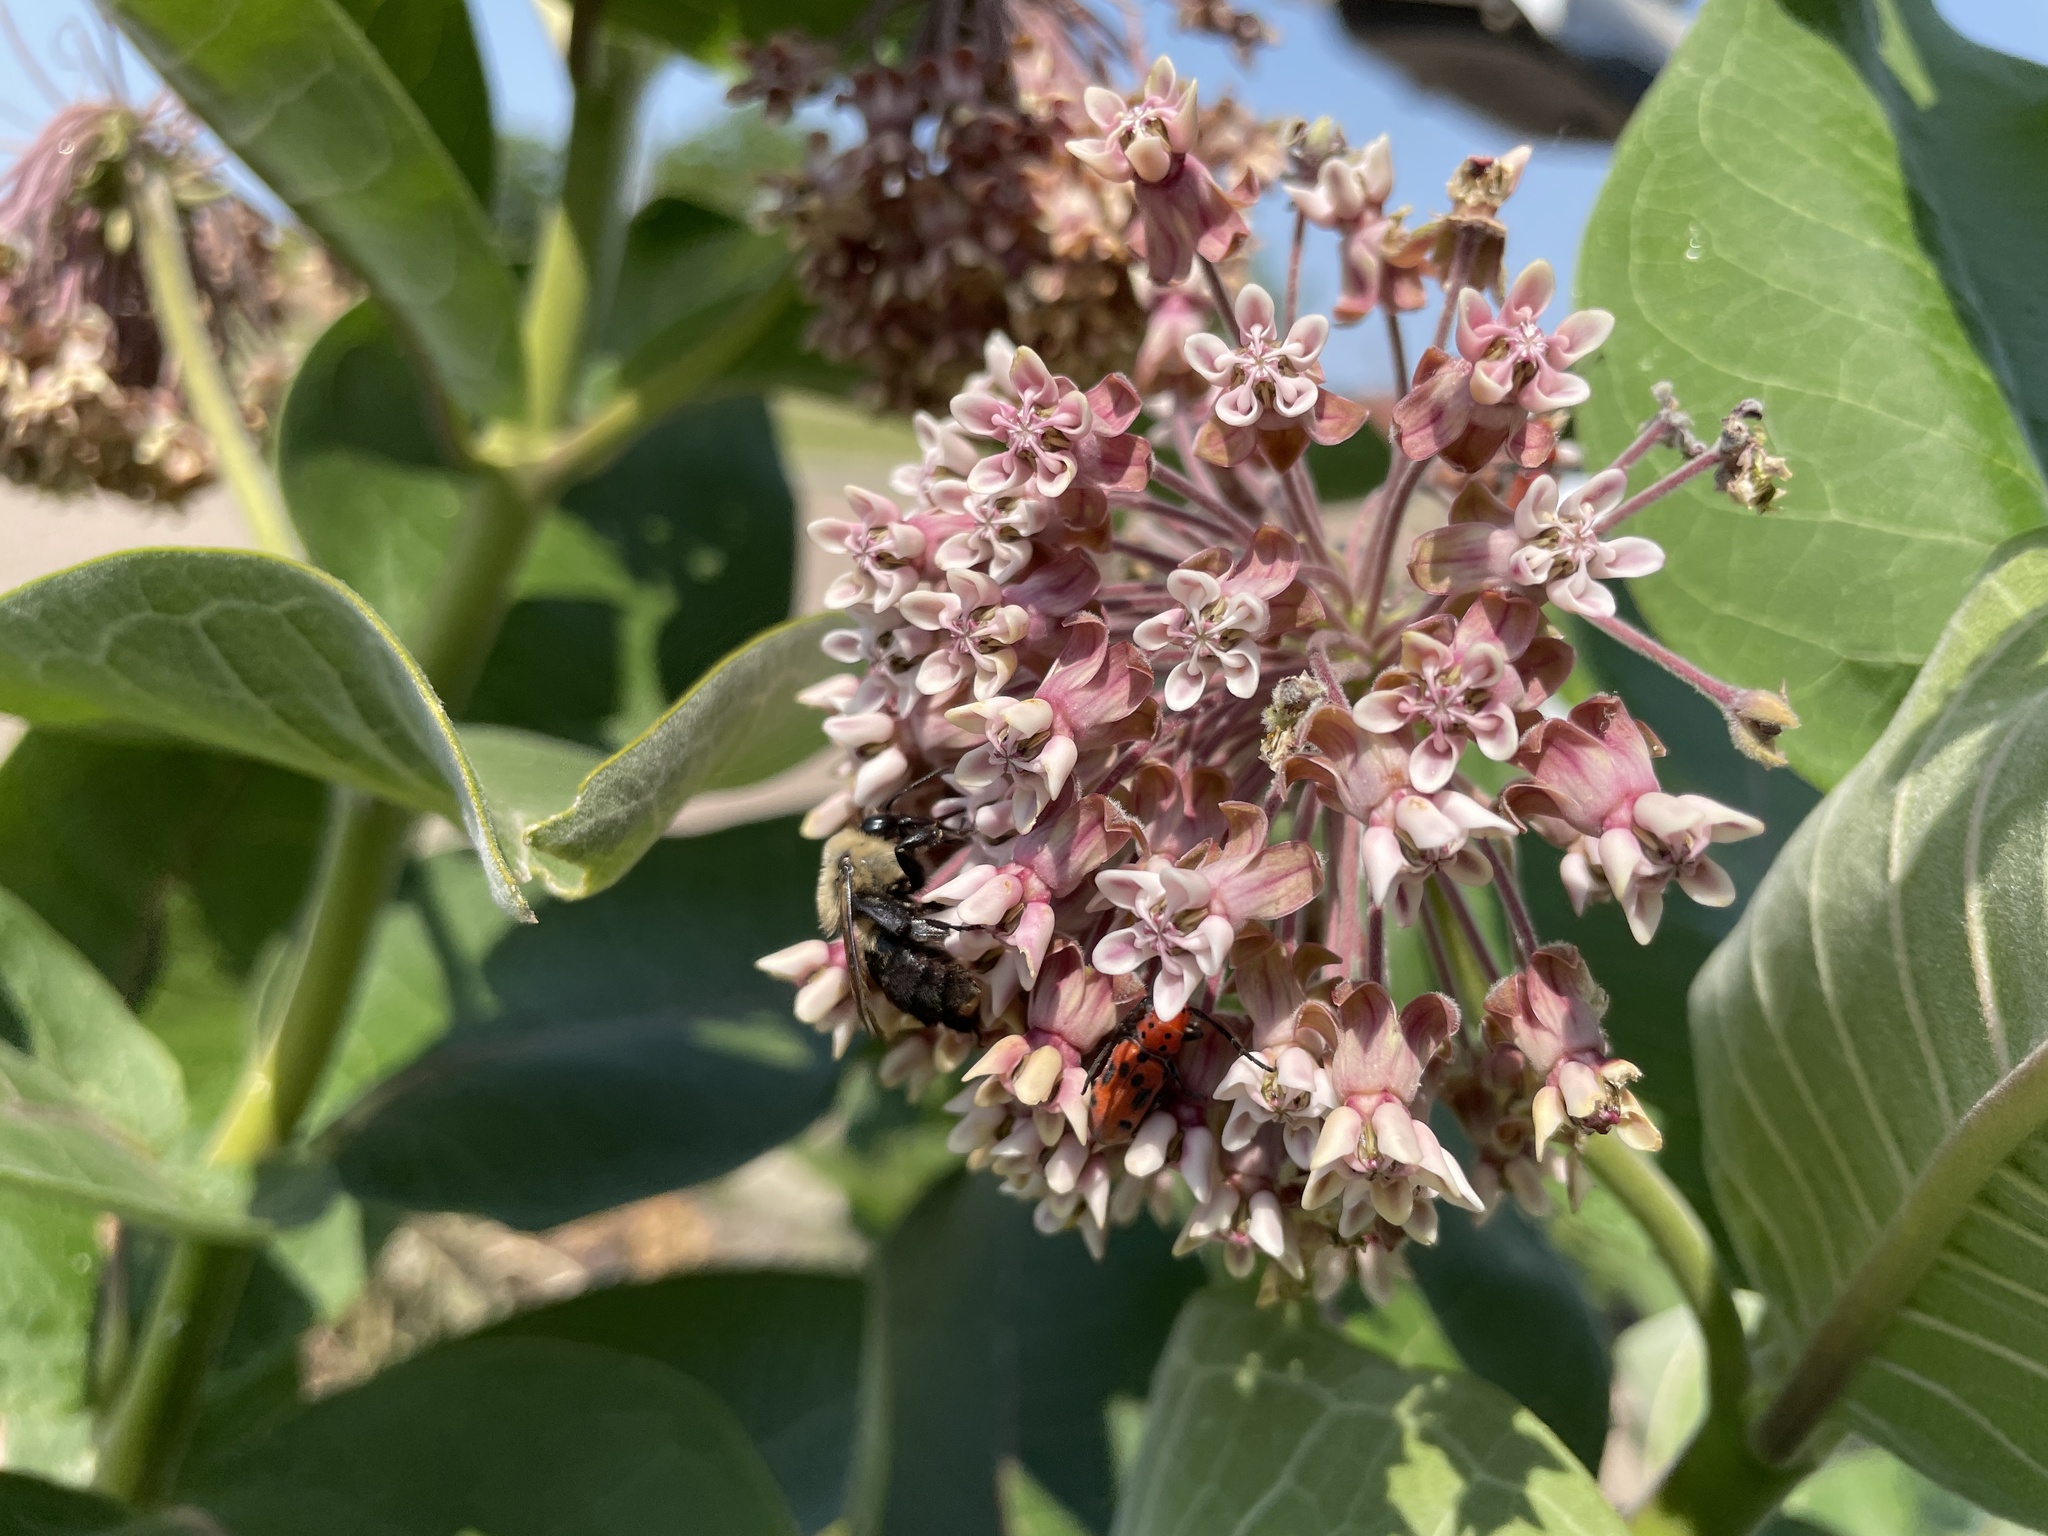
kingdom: Animalia
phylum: Arthropoda
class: Insecta
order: Hymenoptera
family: Apidae
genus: Bombus
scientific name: Bombus griseocollis
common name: Brown-belted bumble bee
